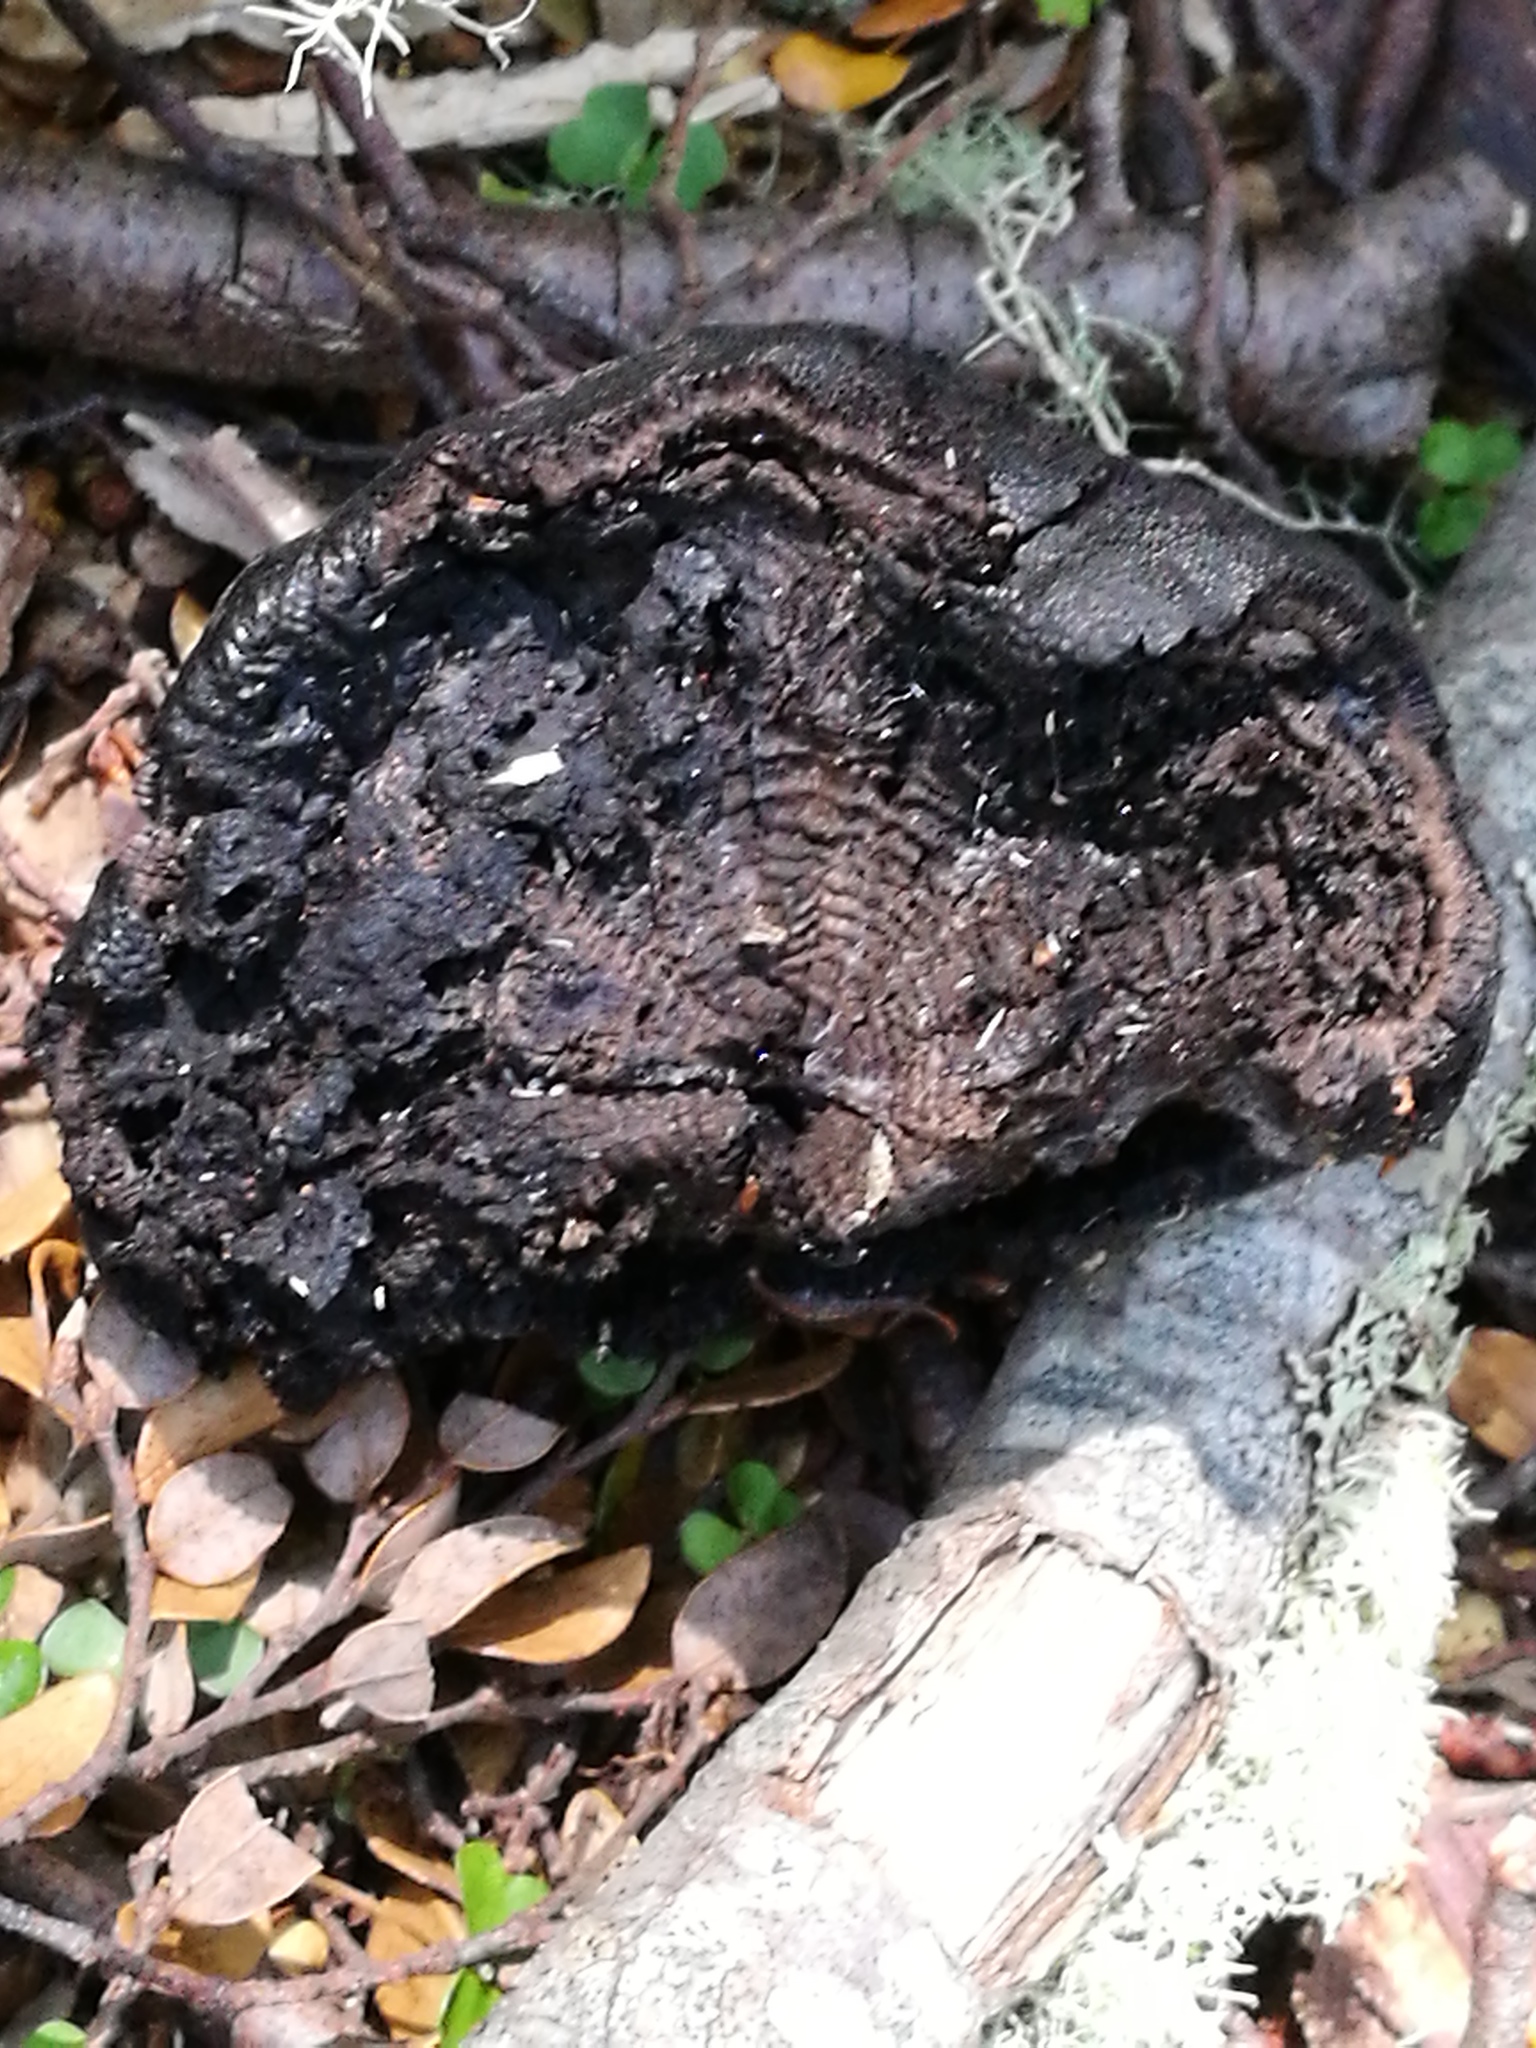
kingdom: Fungi
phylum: Ascomycota
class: Sordariomycetes
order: Xylariales
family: Hypoxylaceae
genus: Daldinia
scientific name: Daldinia
